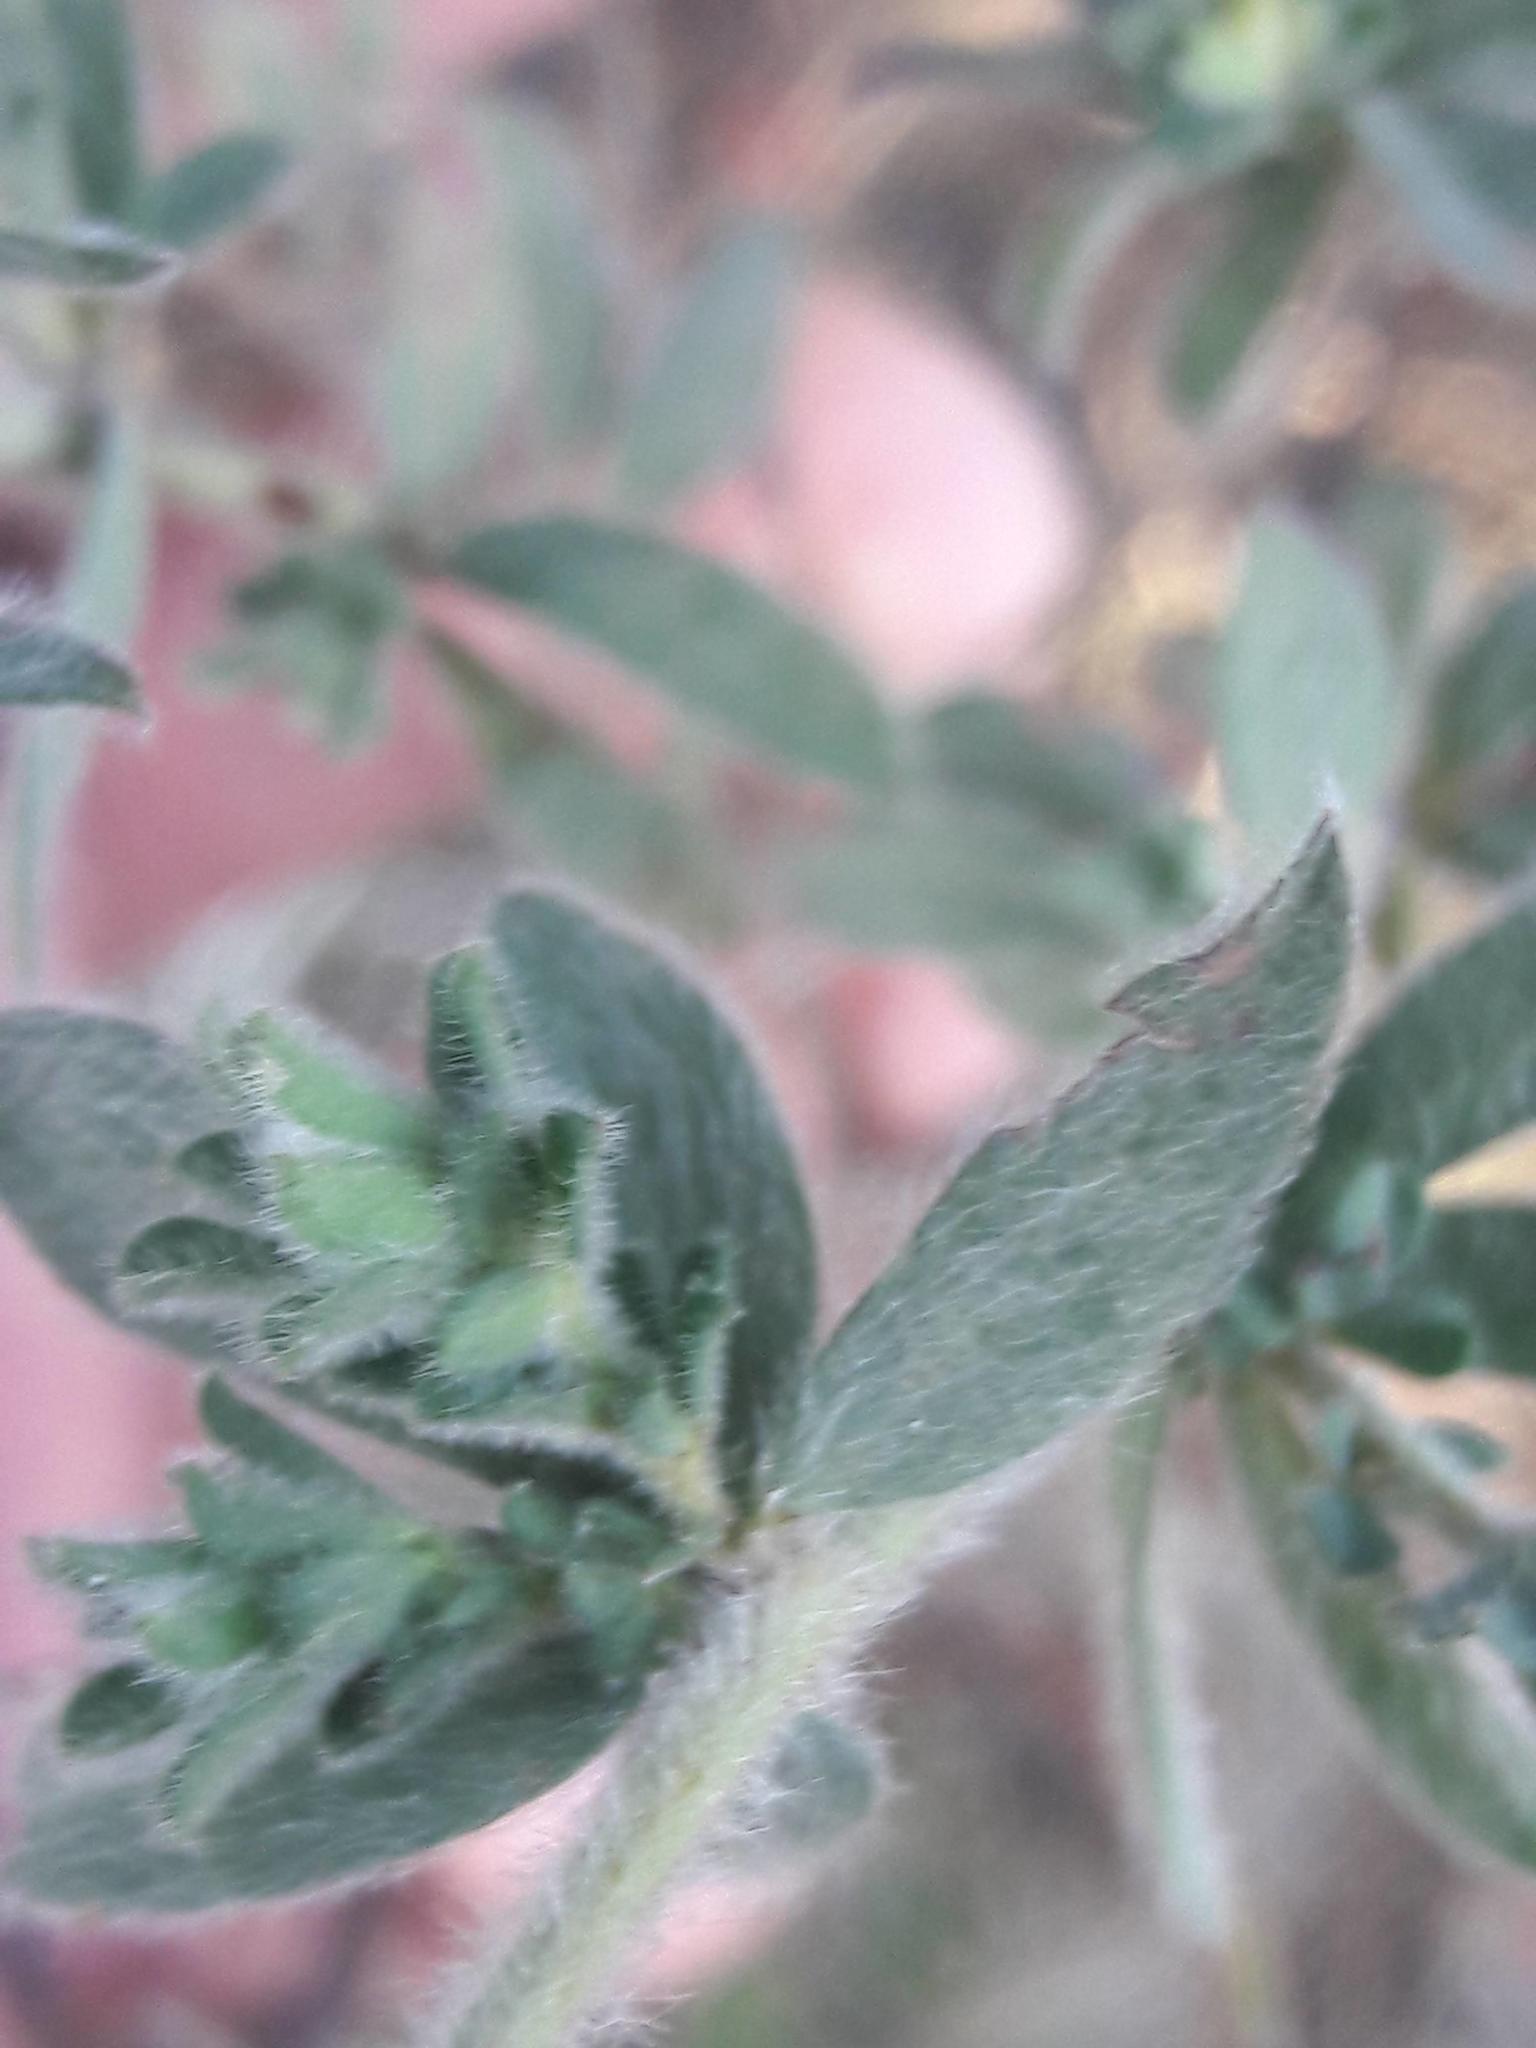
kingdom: Plantae
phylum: Tracheophyta
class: Magnoliopsida
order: Fabales
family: Fabaceae
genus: Lotus
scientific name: Lotus hirsutus
